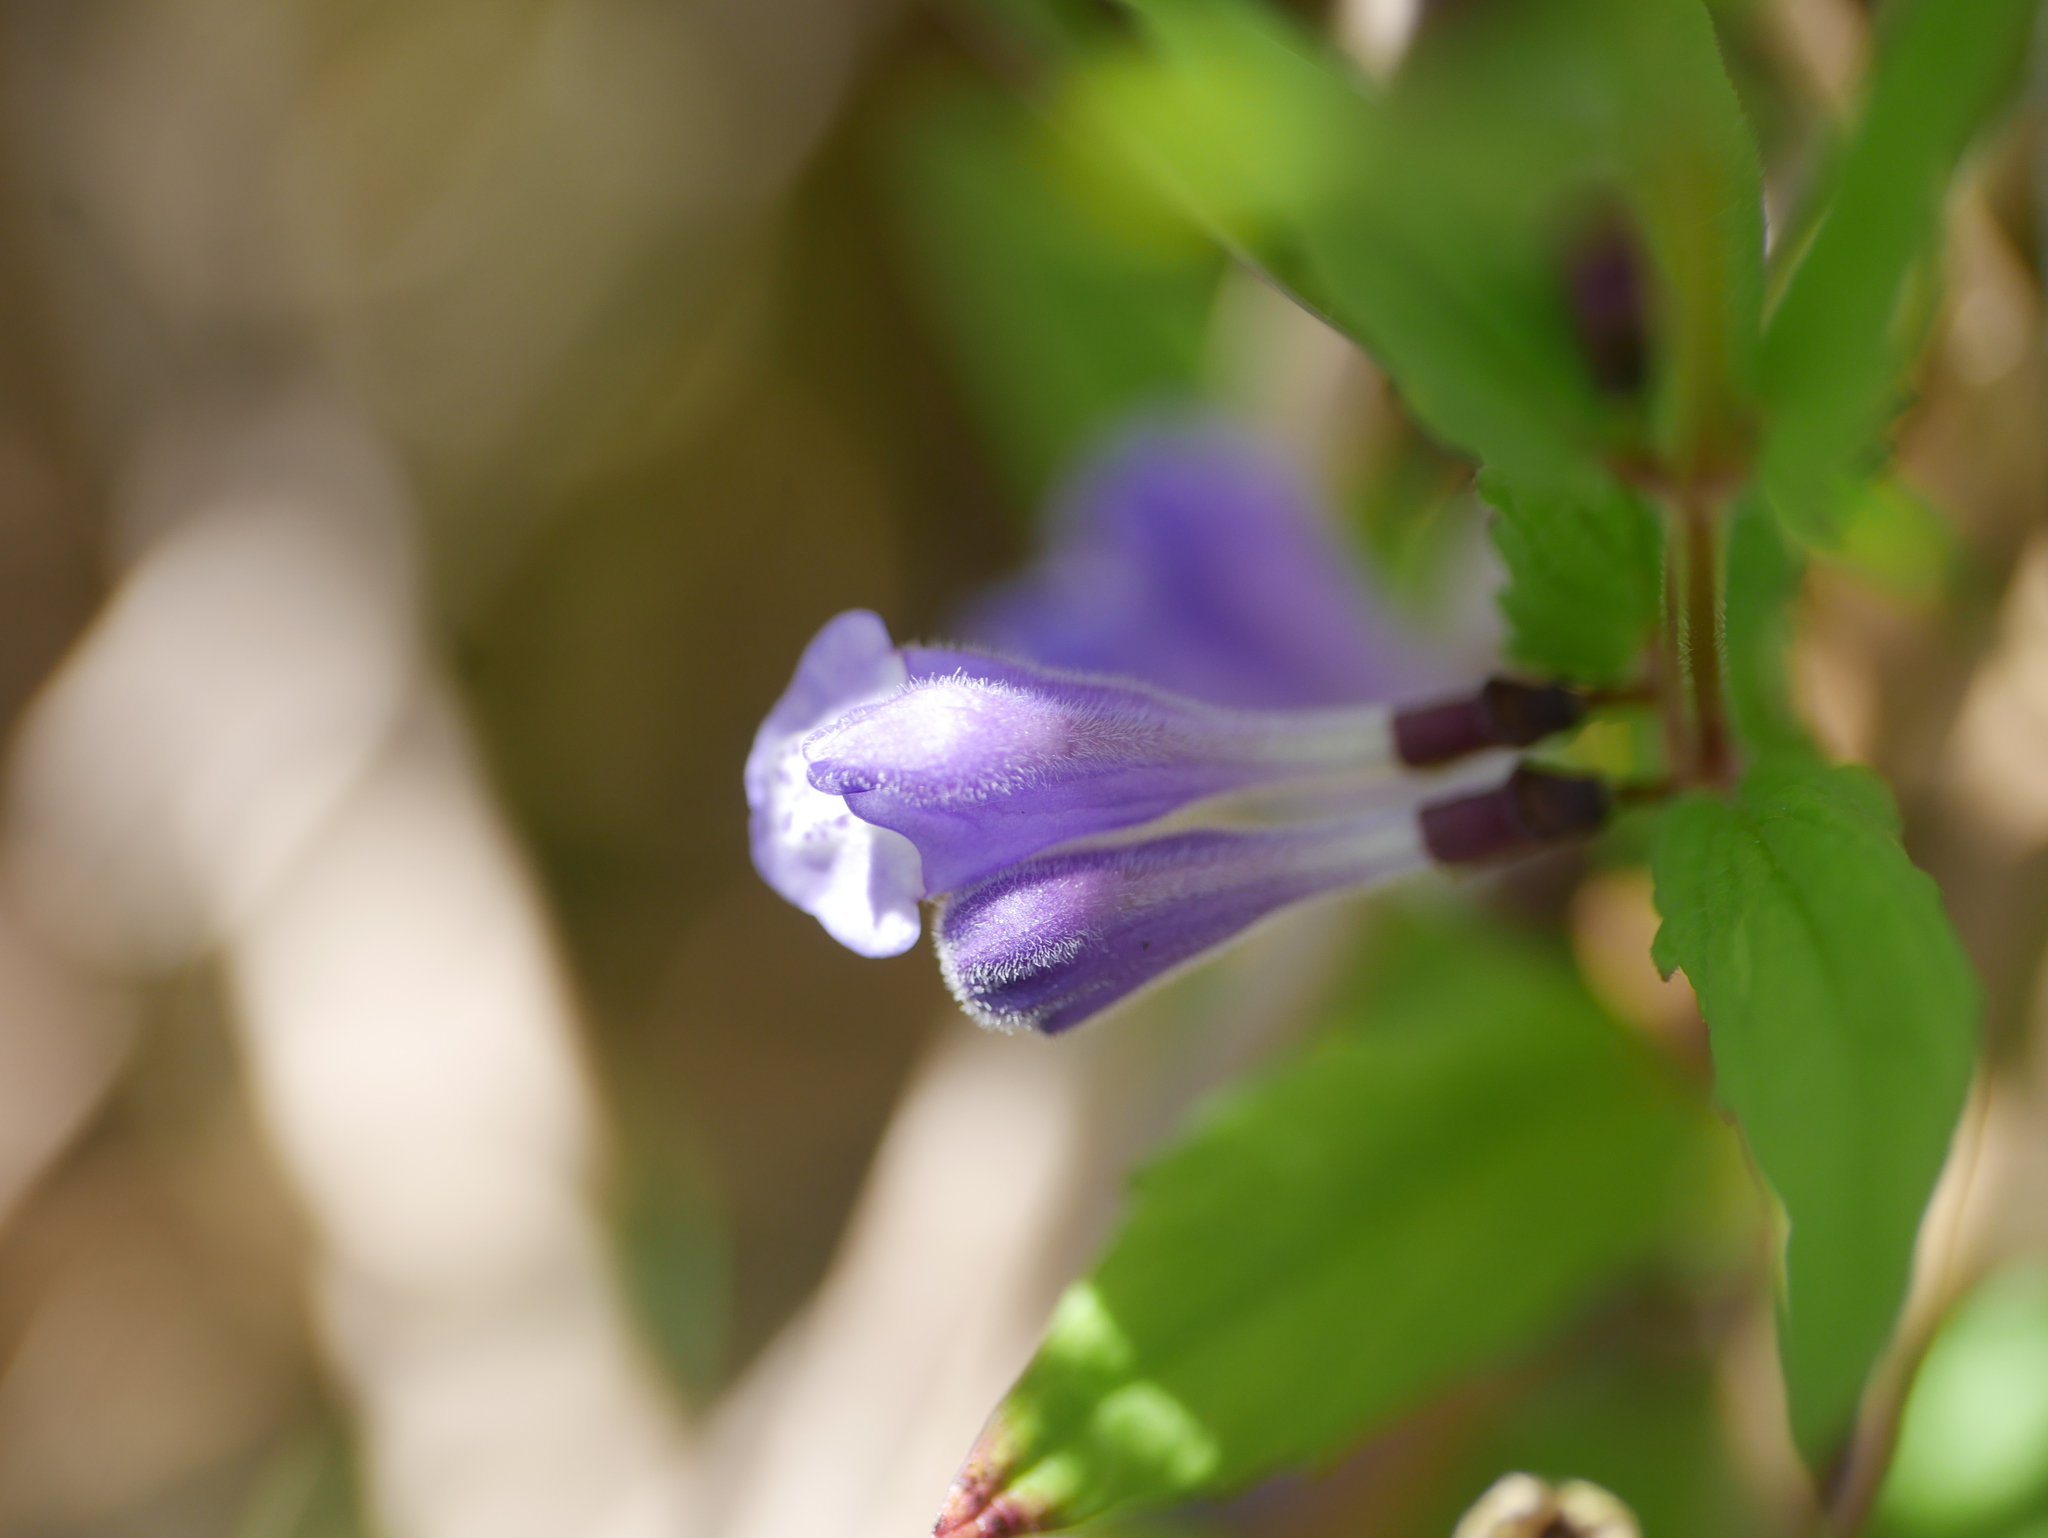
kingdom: Plantae
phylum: Tracheophyta
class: Magnoliopsida
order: Lamiales
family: Lamiaceae
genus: Scutellaria
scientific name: Scutellaria galericulata
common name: Skullcap
